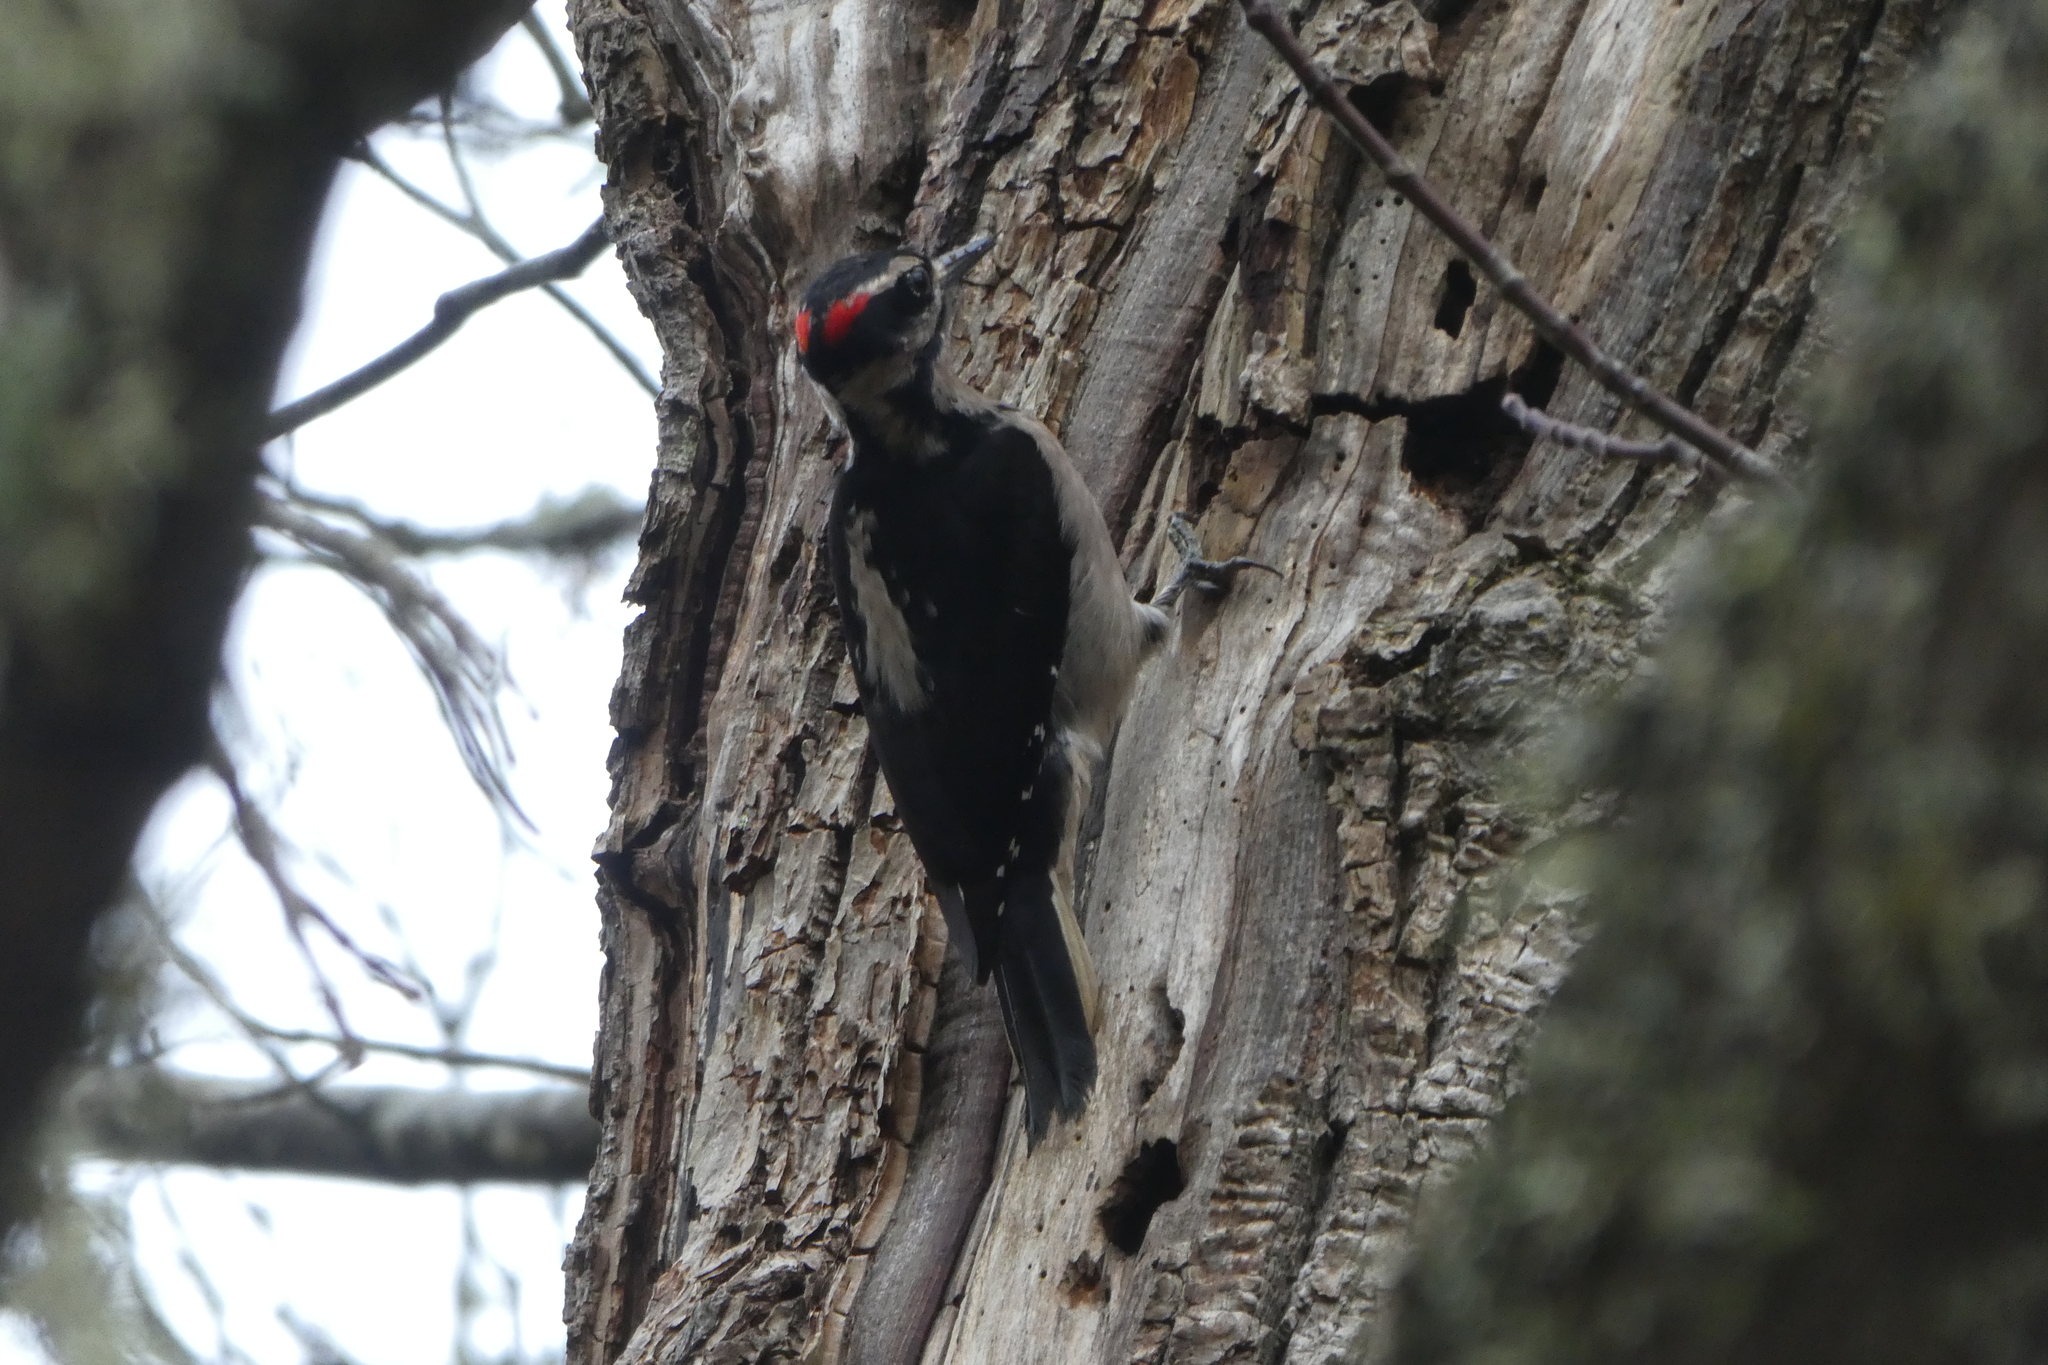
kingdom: Animalia
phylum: Chordata
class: Aves
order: Piciformes
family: Picidae
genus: Leuconotopicus
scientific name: Leuconotopicus villosus
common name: Hairy woodpecker
